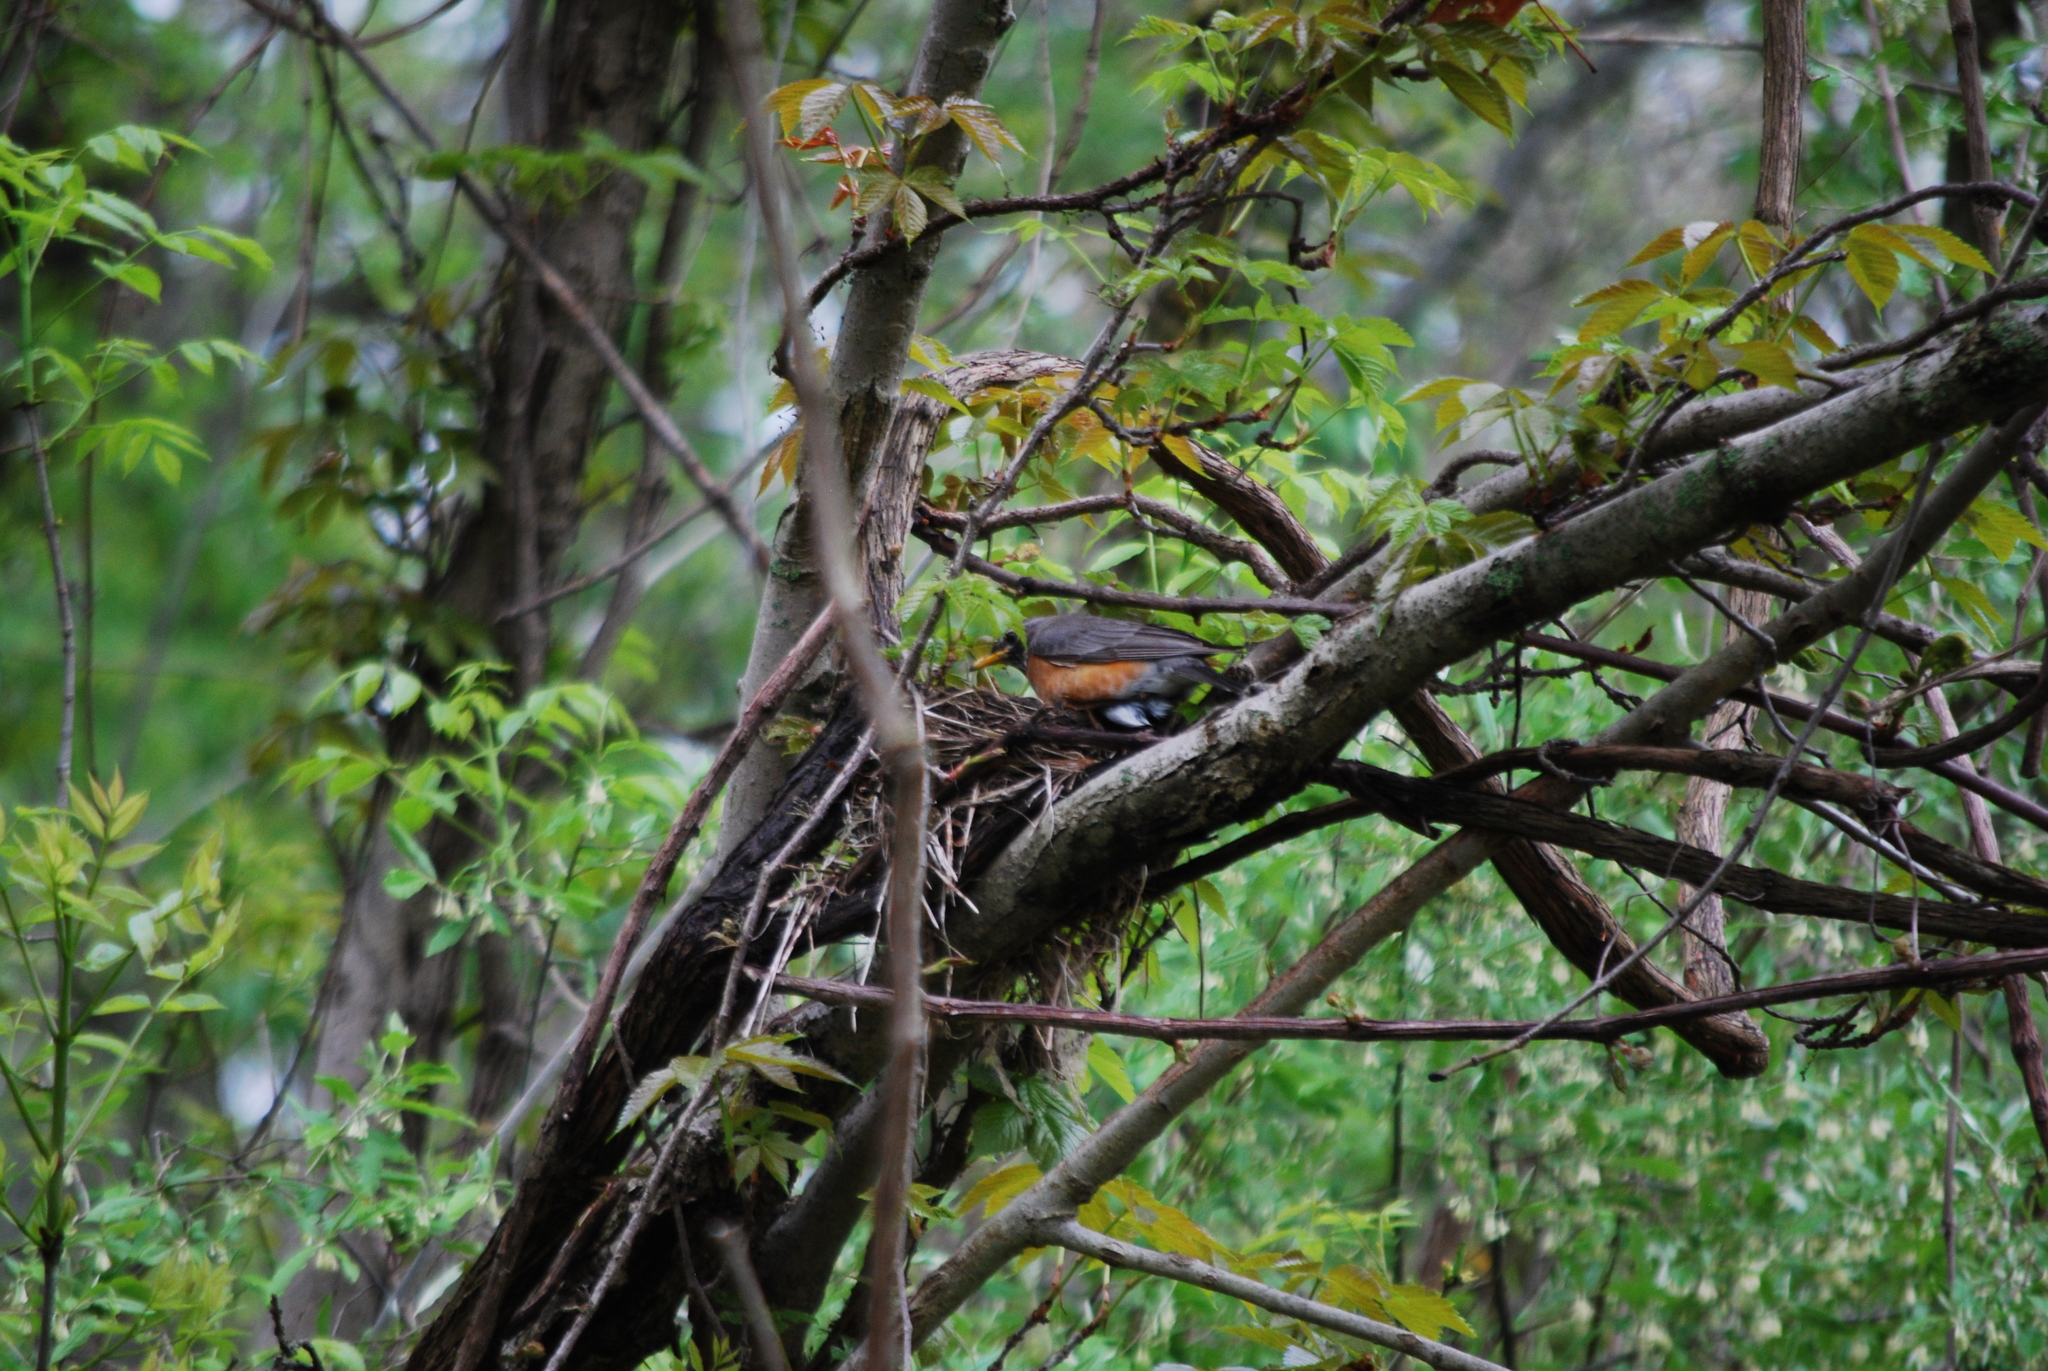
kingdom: Animalia
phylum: Chordata
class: Aves
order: Passeriformes
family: Turdidae
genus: Turdus
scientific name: Turdus migratorius
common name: American robin
